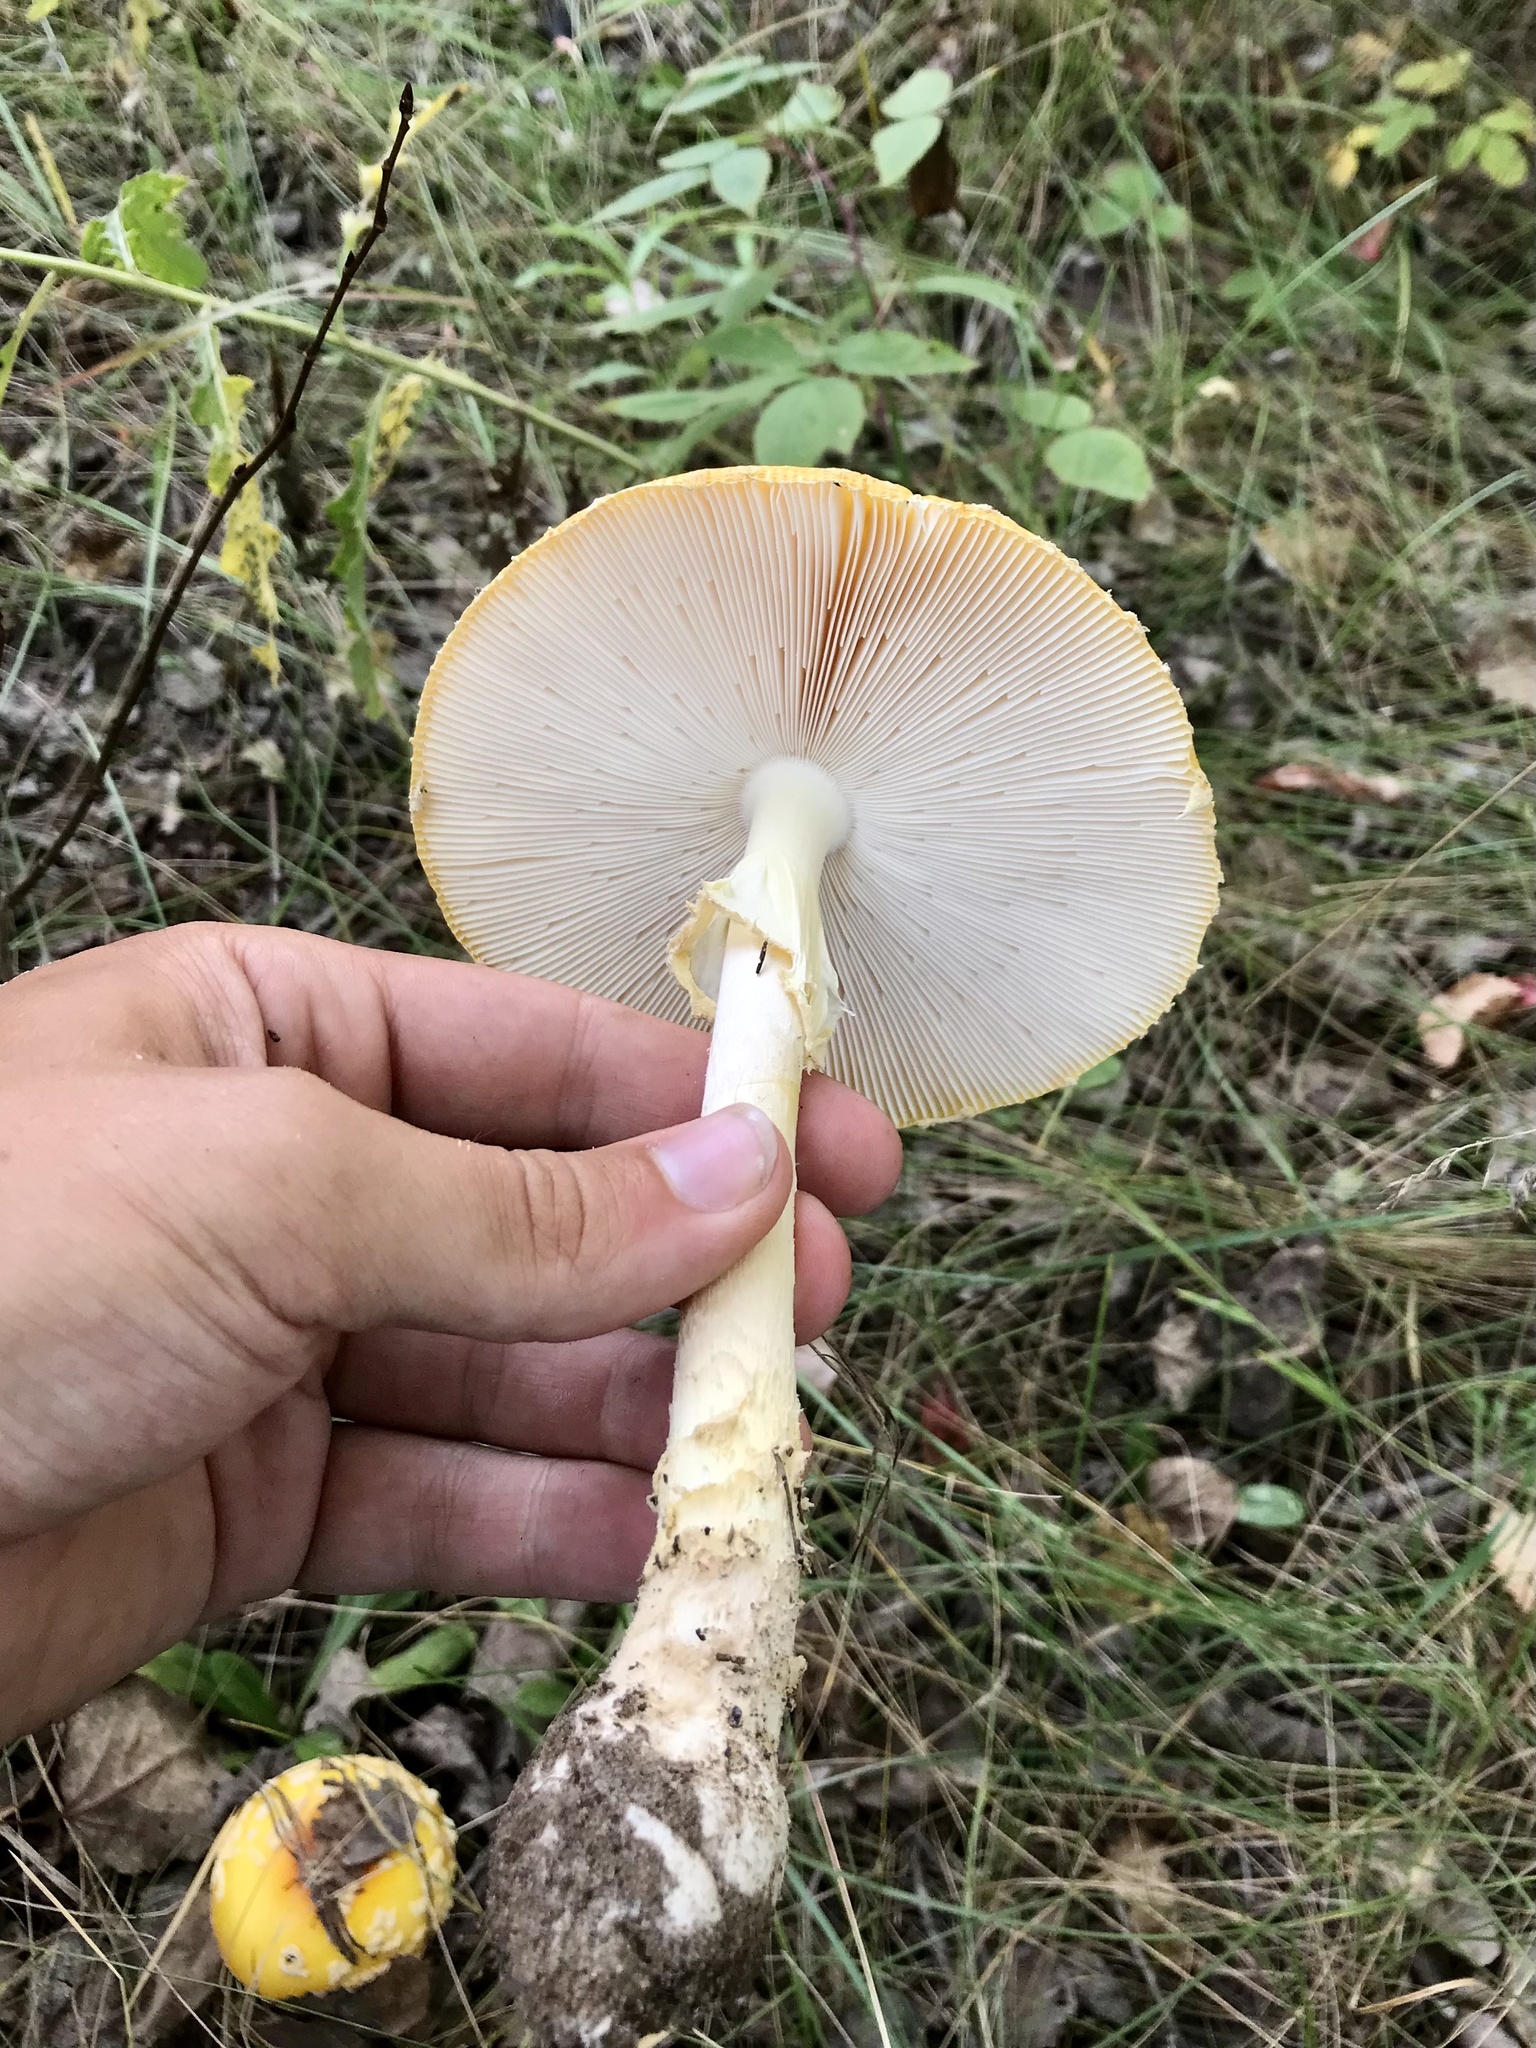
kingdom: Fungi
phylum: Basidiomycota
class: Agaricomycetes
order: Agaricales
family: Amanitaceae
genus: Amanita
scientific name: Amanita muscaria
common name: Fly agaric
